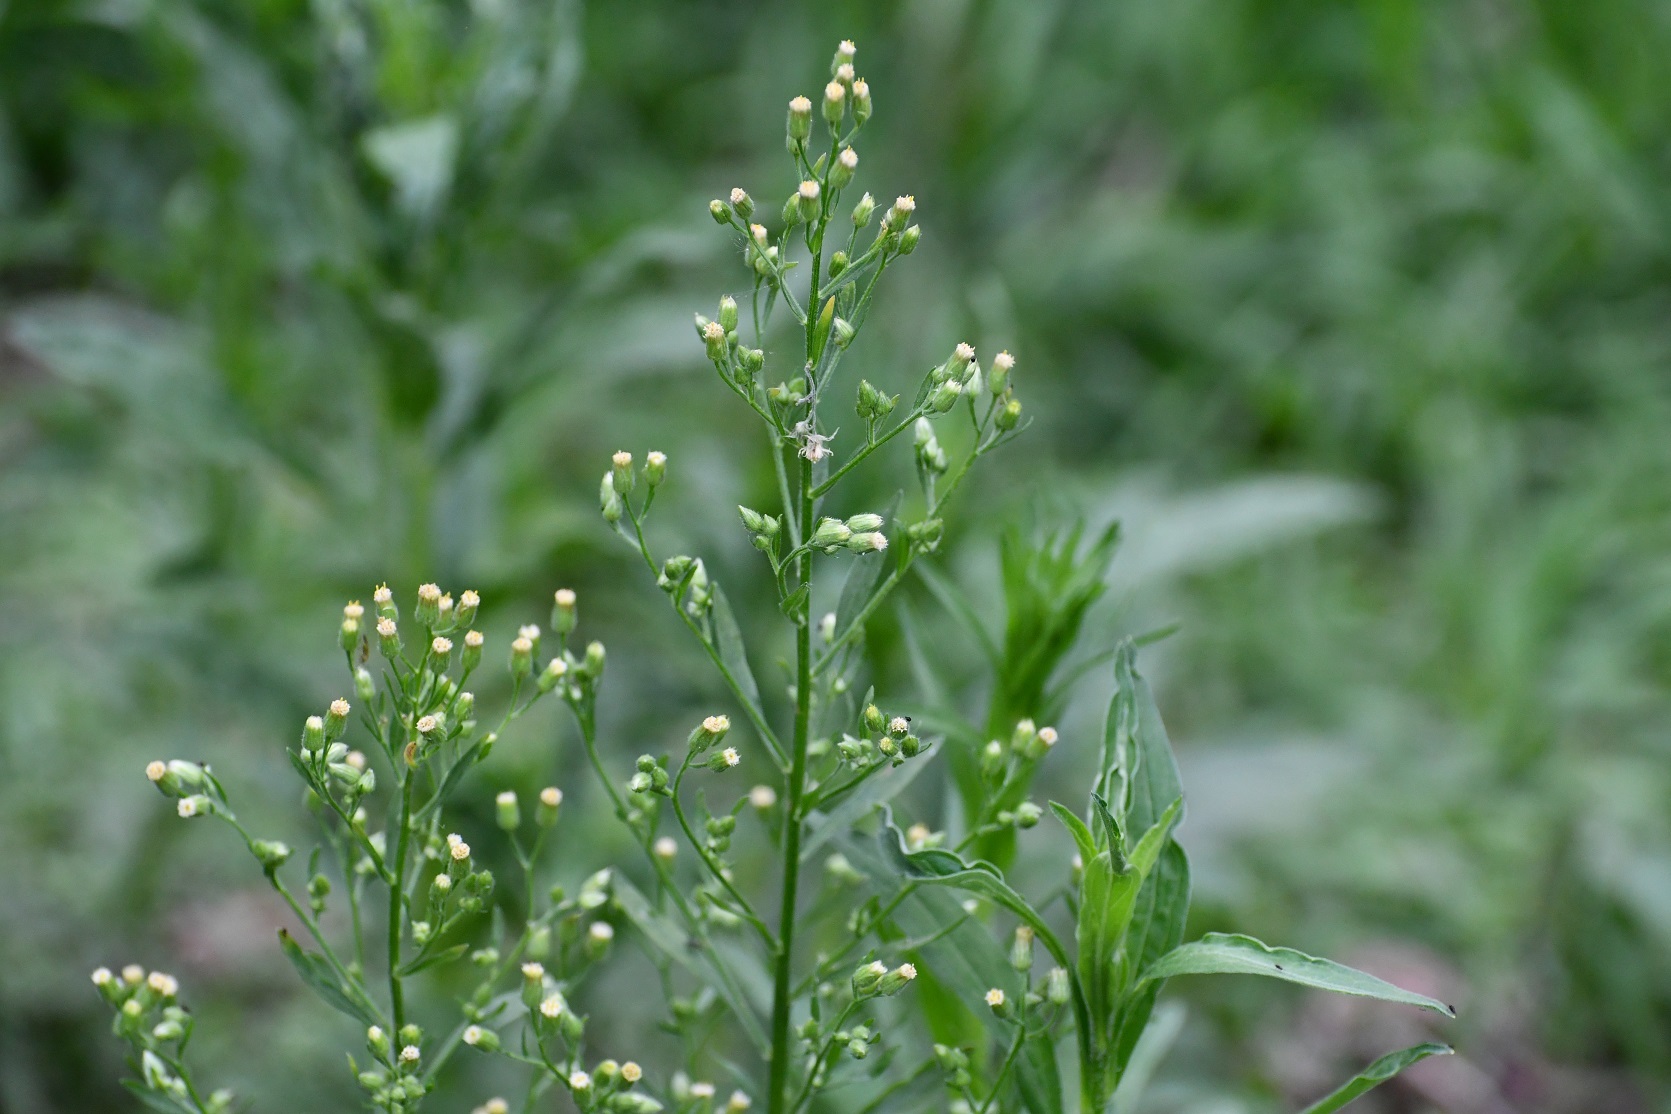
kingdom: Plantae
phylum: Tracheophyta
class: Magnoliopsida
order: Asterales
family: Asteraceae
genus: Erigeron
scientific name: Erigeron canadensis
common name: Canadian fleabane
